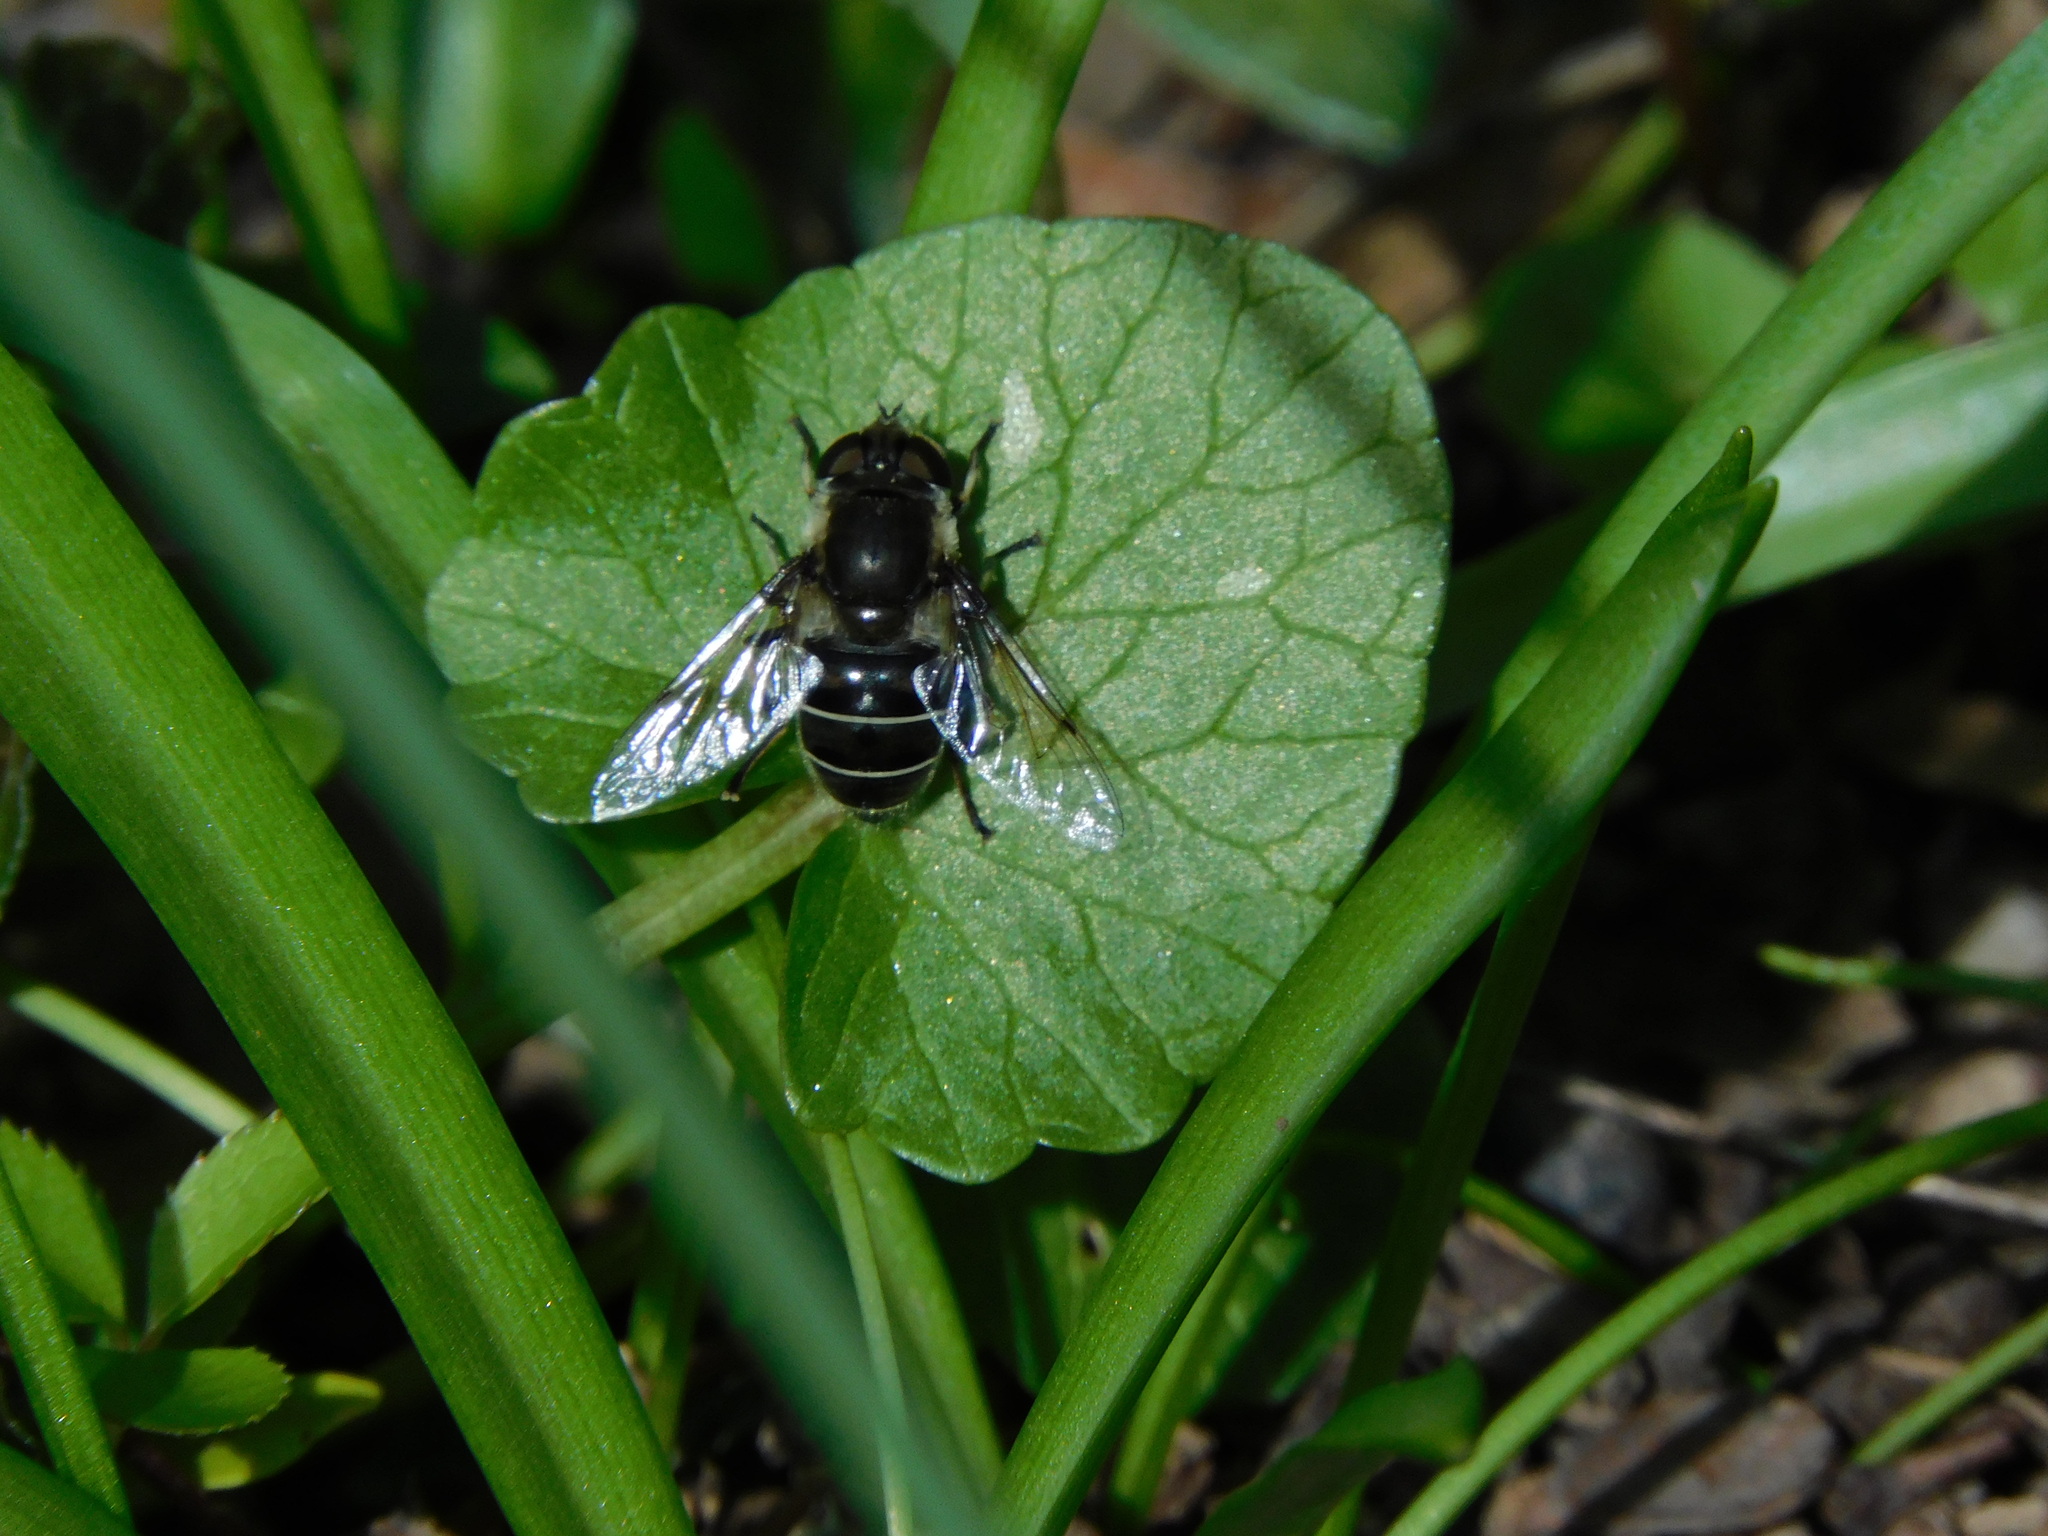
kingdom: Animalia
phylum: Arthropoda
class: Insecta
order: Diptera
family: Syrphidae
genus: Eristalis
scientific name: Eristalis dimidiata
